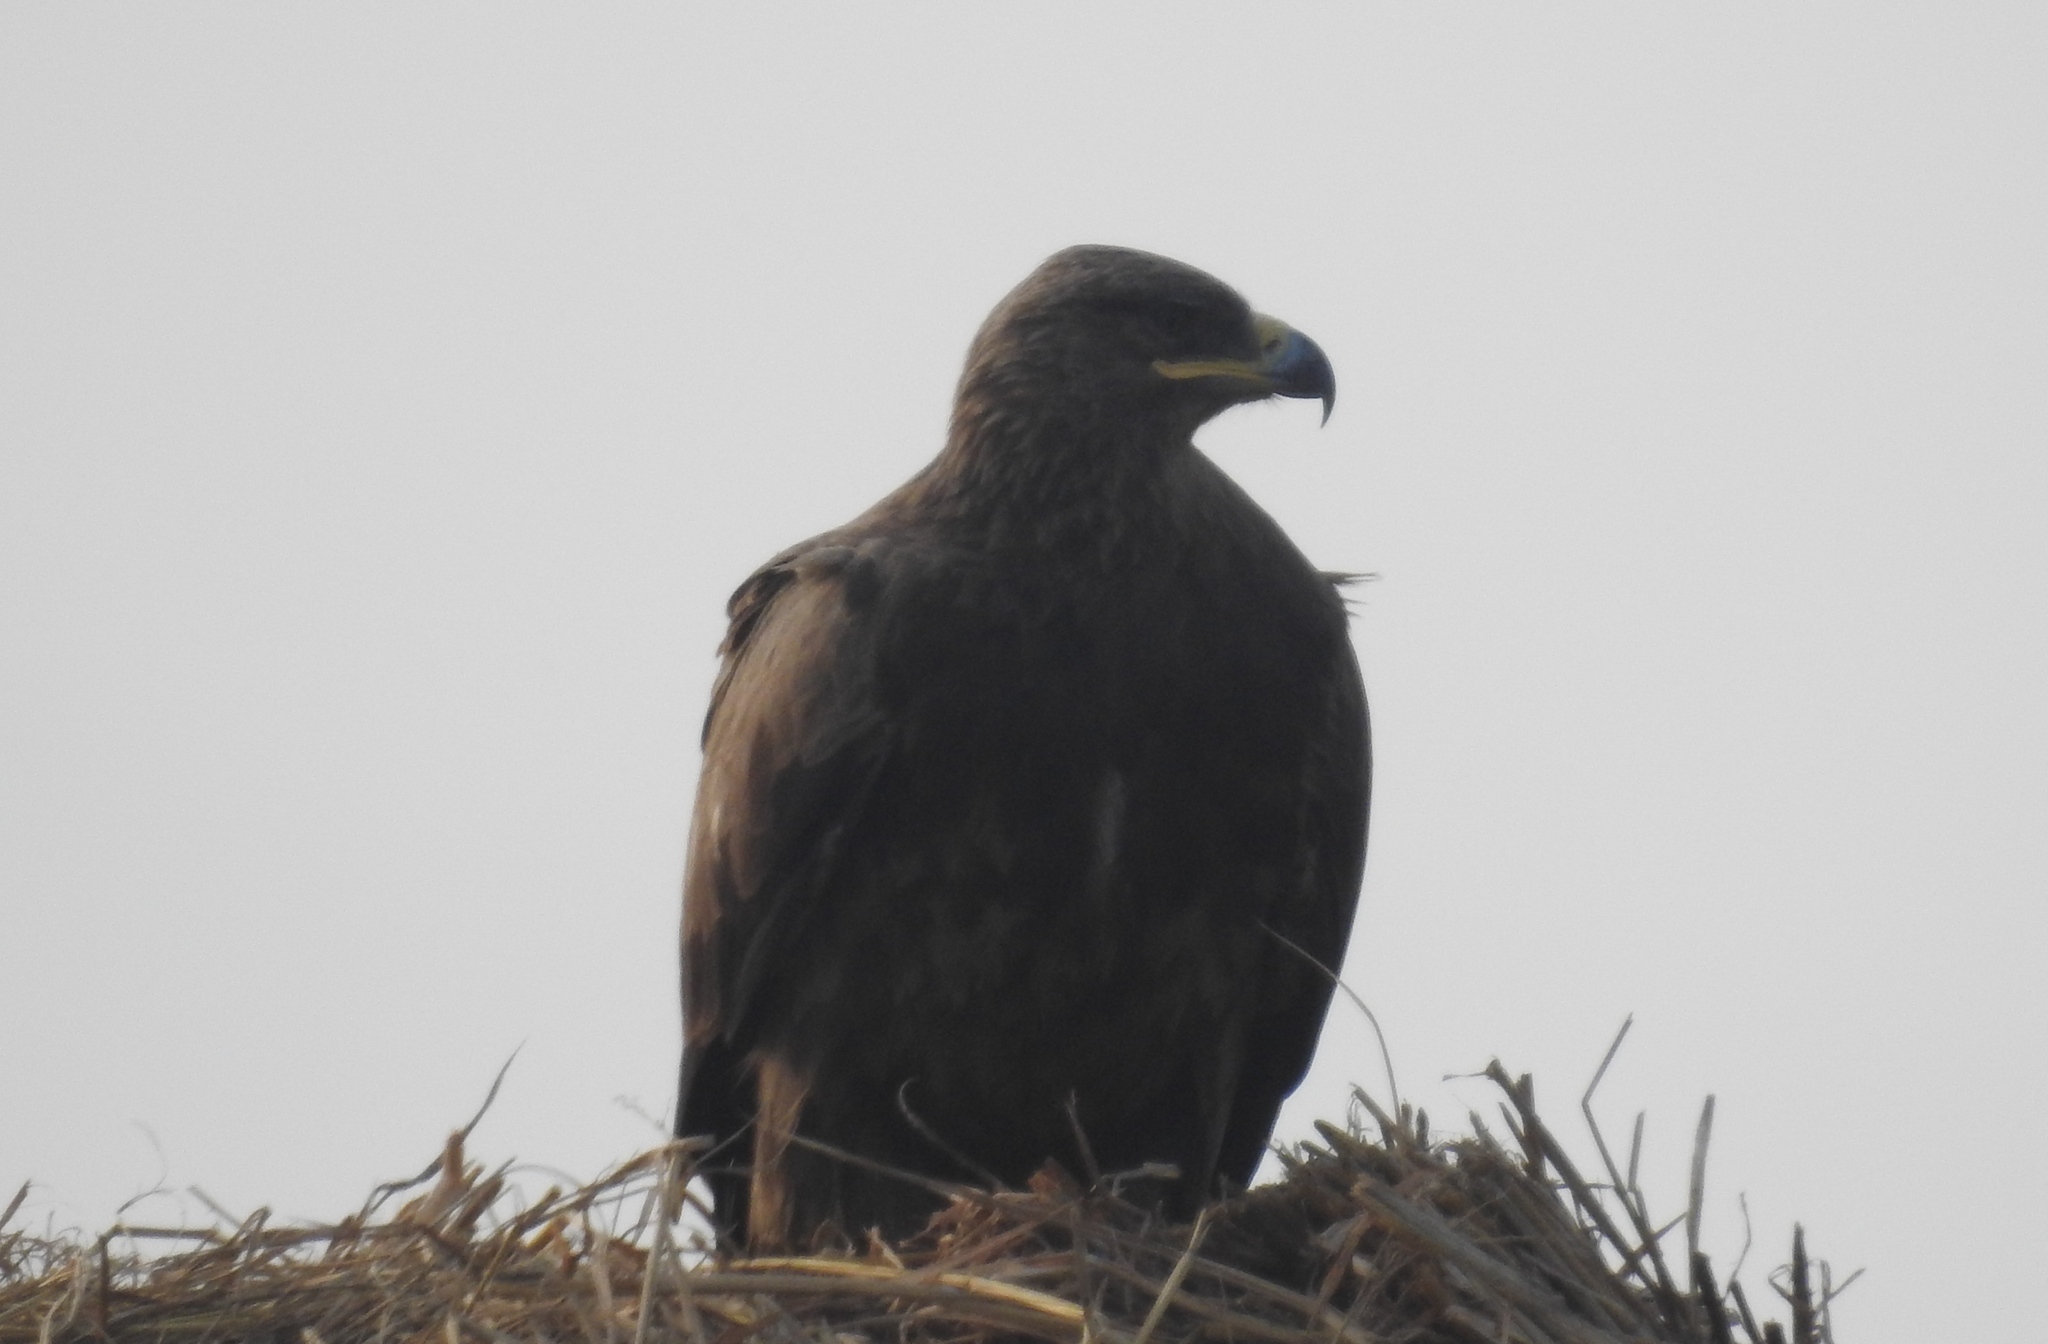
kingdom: Animalia
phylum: Chordata
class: Aves
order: Accipitriformes
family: Accipitridae
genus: Aquila
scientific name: Aquila nipalensis
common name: Steppe eagle
